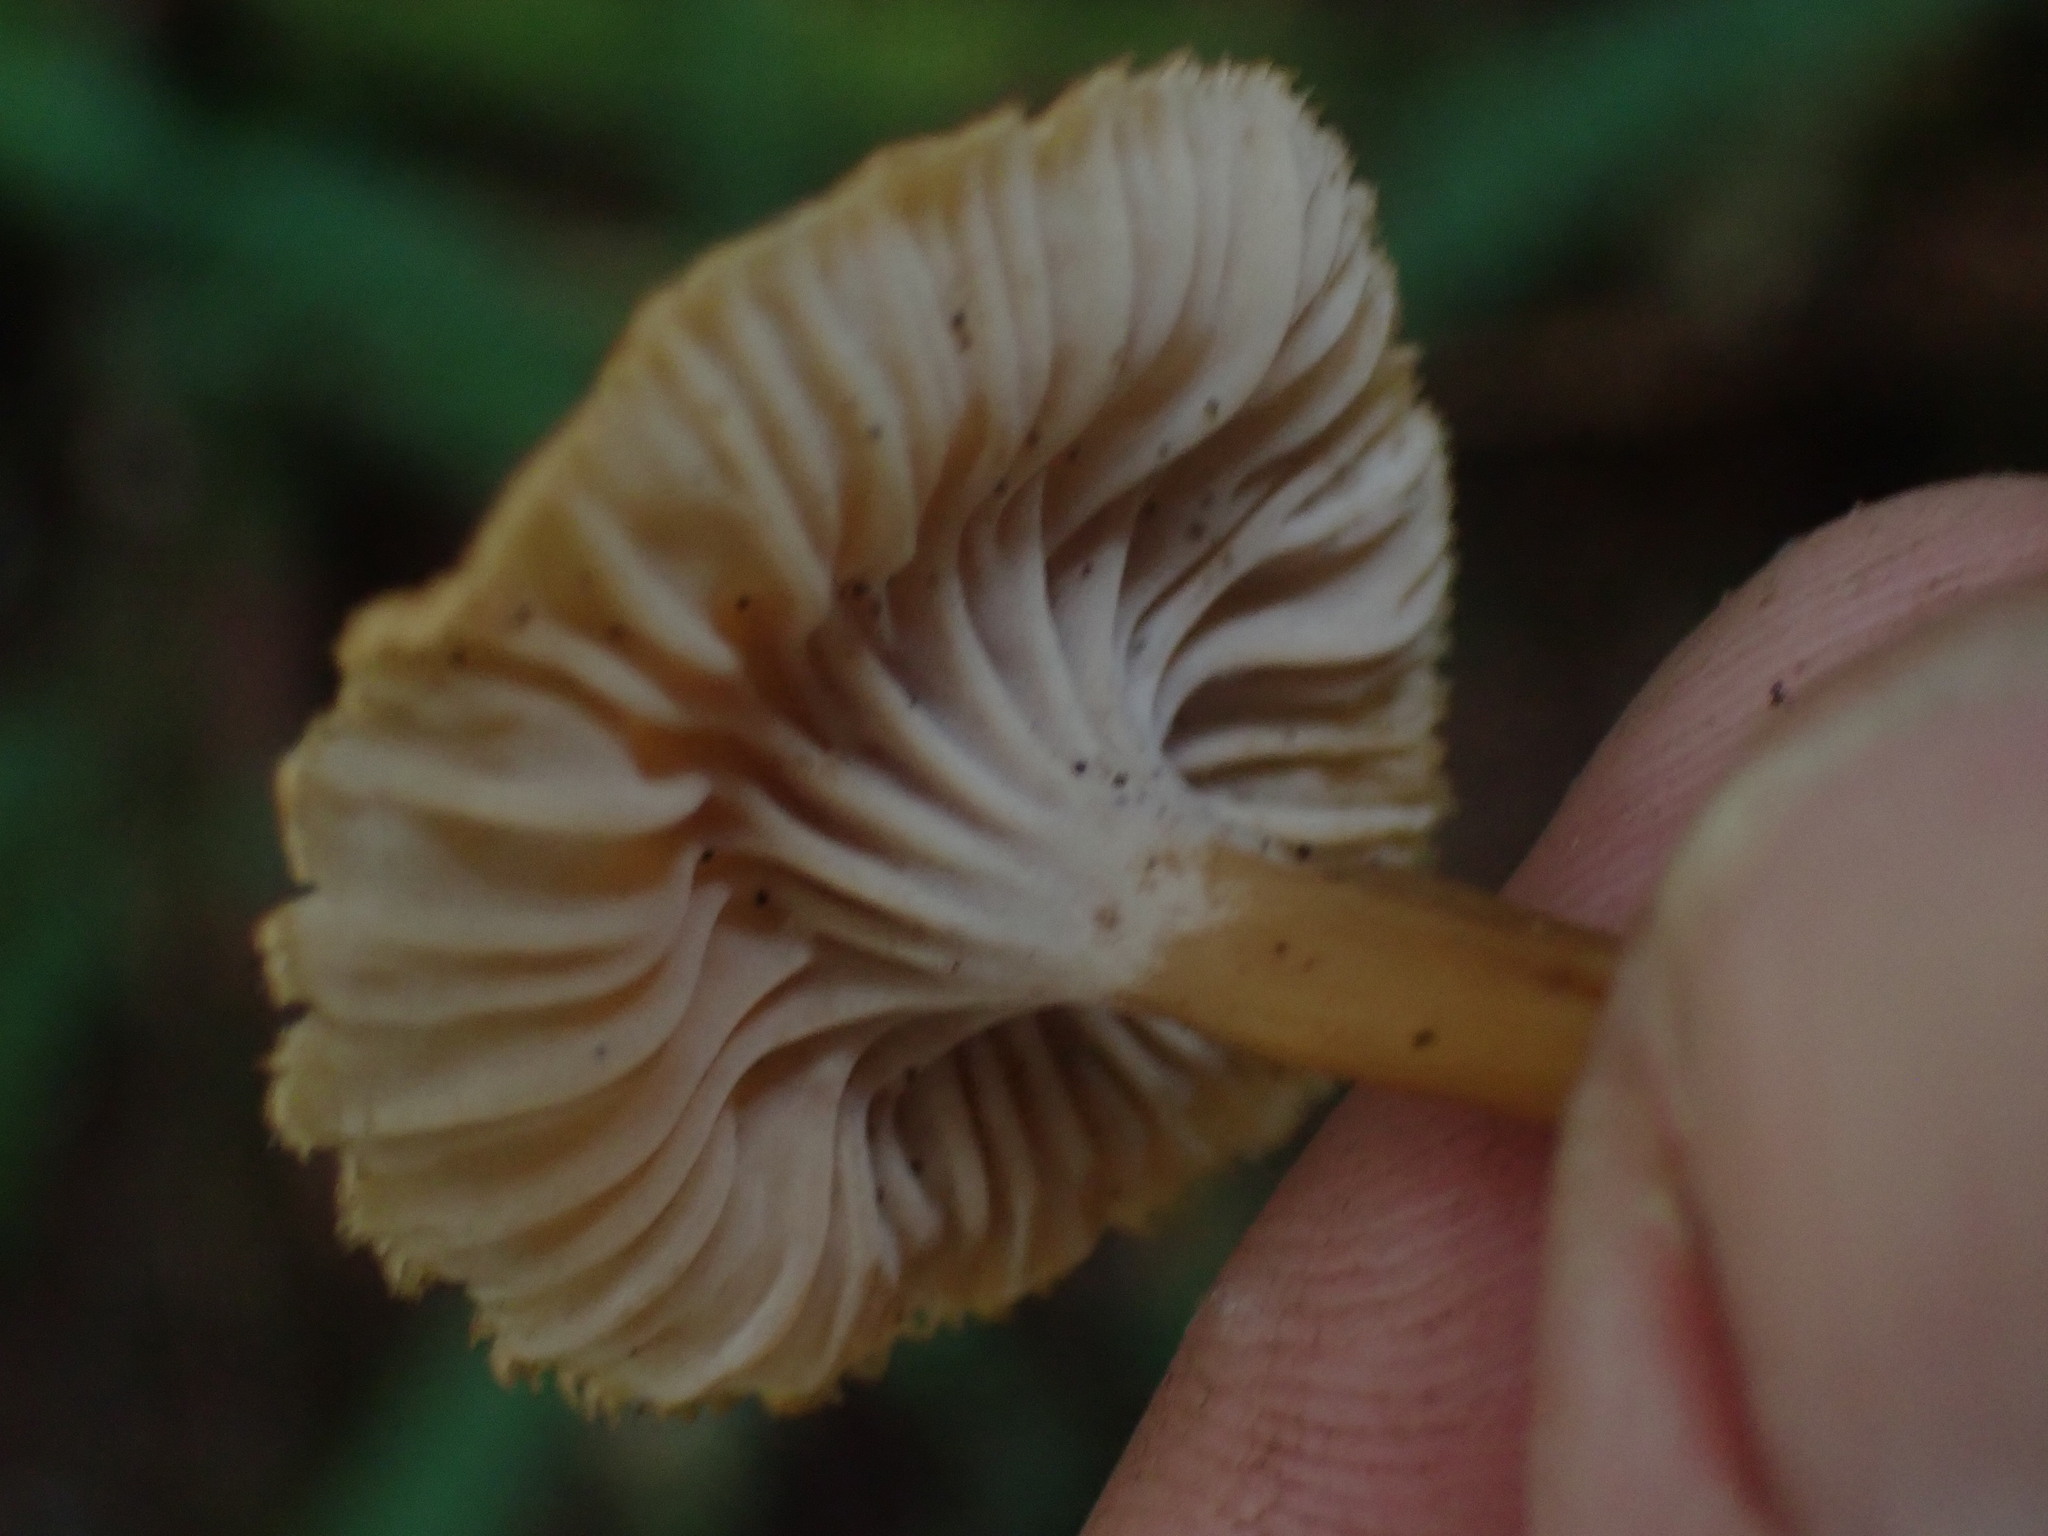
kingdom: Fungi
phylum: Basidiomycota
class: Agaricomycetes
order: Cantharellales
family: Hydnaceae
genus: Craterellus
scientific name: Craterellus tubaeformis
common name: Yellowfoot
